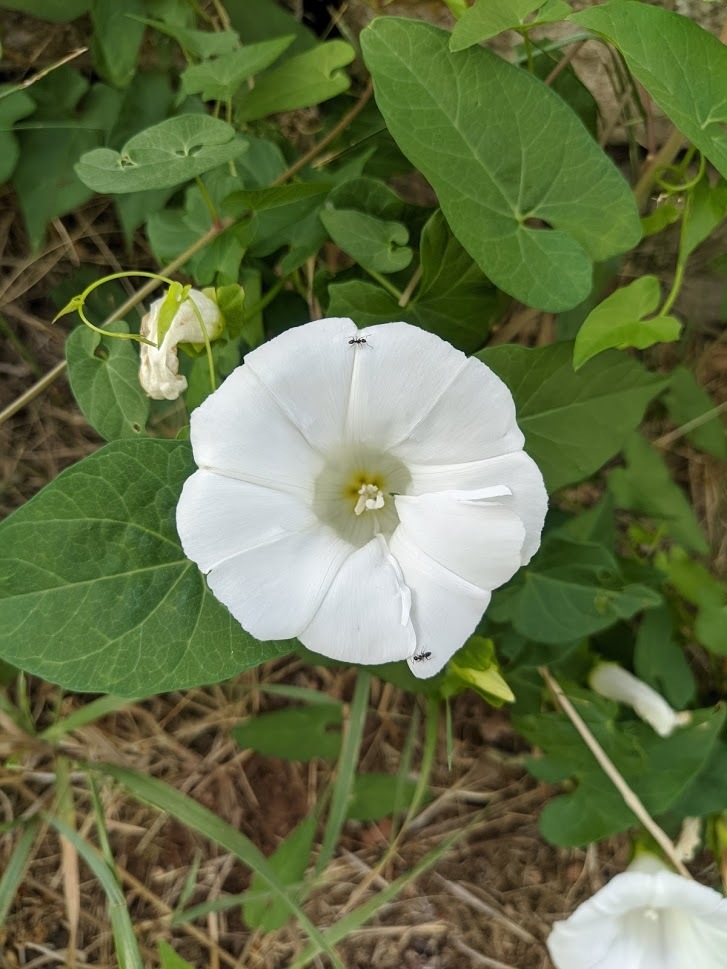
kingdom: Plantae
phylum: Tracheophyta
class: Magnoliopsida
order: Solanales
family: Convolvulaceae
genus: Calystegia
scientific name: Calystegia sepium
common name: Hedge bindweed
